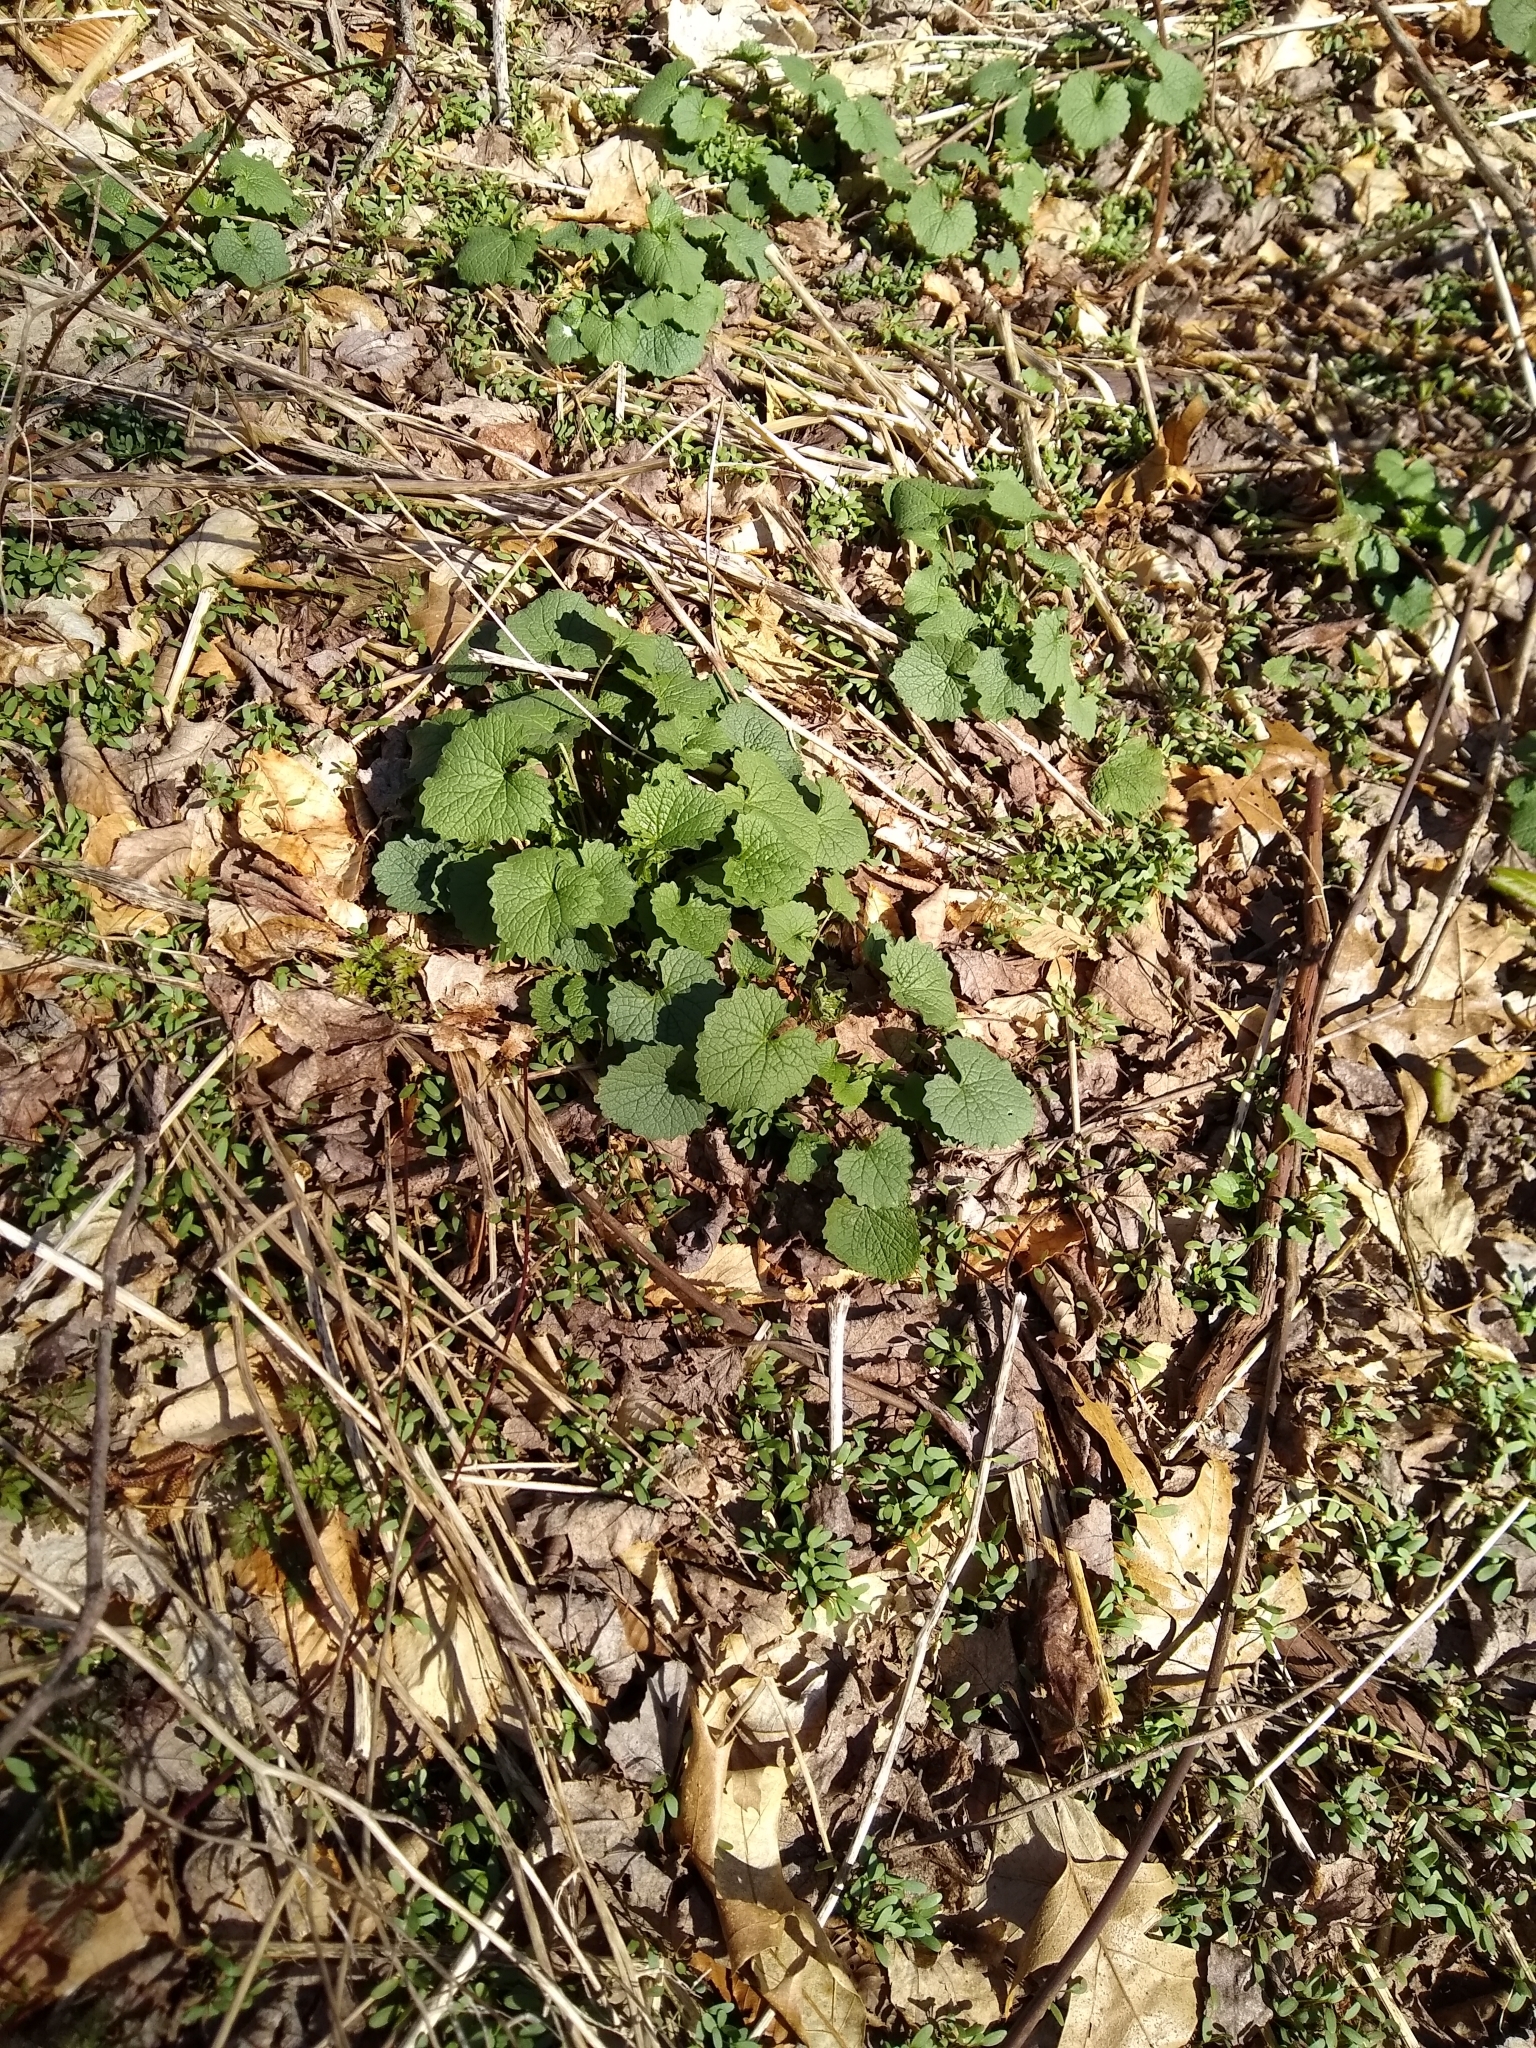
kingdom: Plantae
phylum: Tracheophyta
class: Magnoliopsida
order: Brassicales
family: Brassicaceae
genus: Alliaria
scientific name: Alliaria petiolata
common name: Garlic mustard
